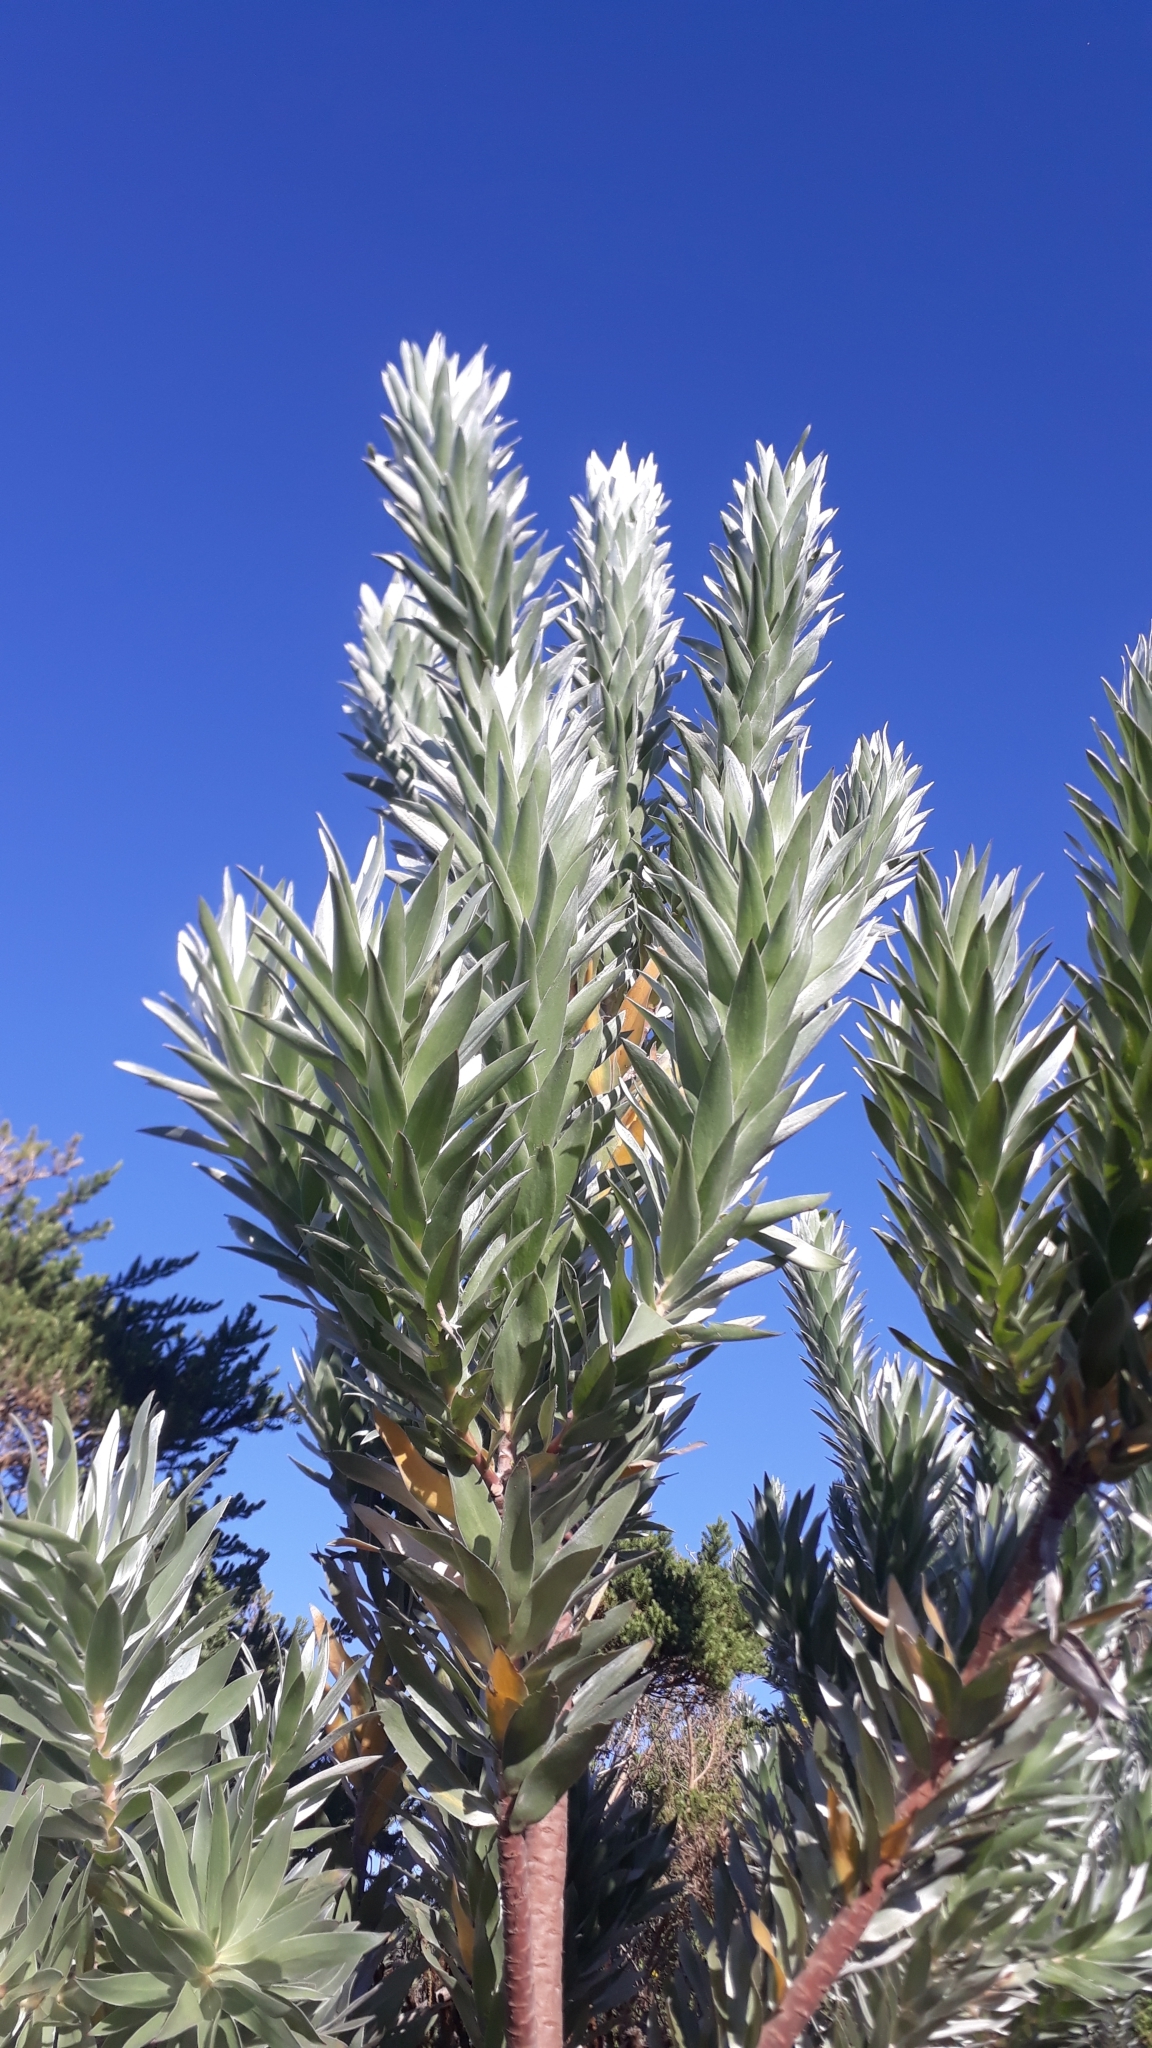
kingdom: Plantae
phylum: Tracheophyta
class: Magnoliopsida
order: Proteales
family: Proteaceae
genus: Leucadendron
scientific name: Leucadendron argenteum
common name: Cape silver tree
